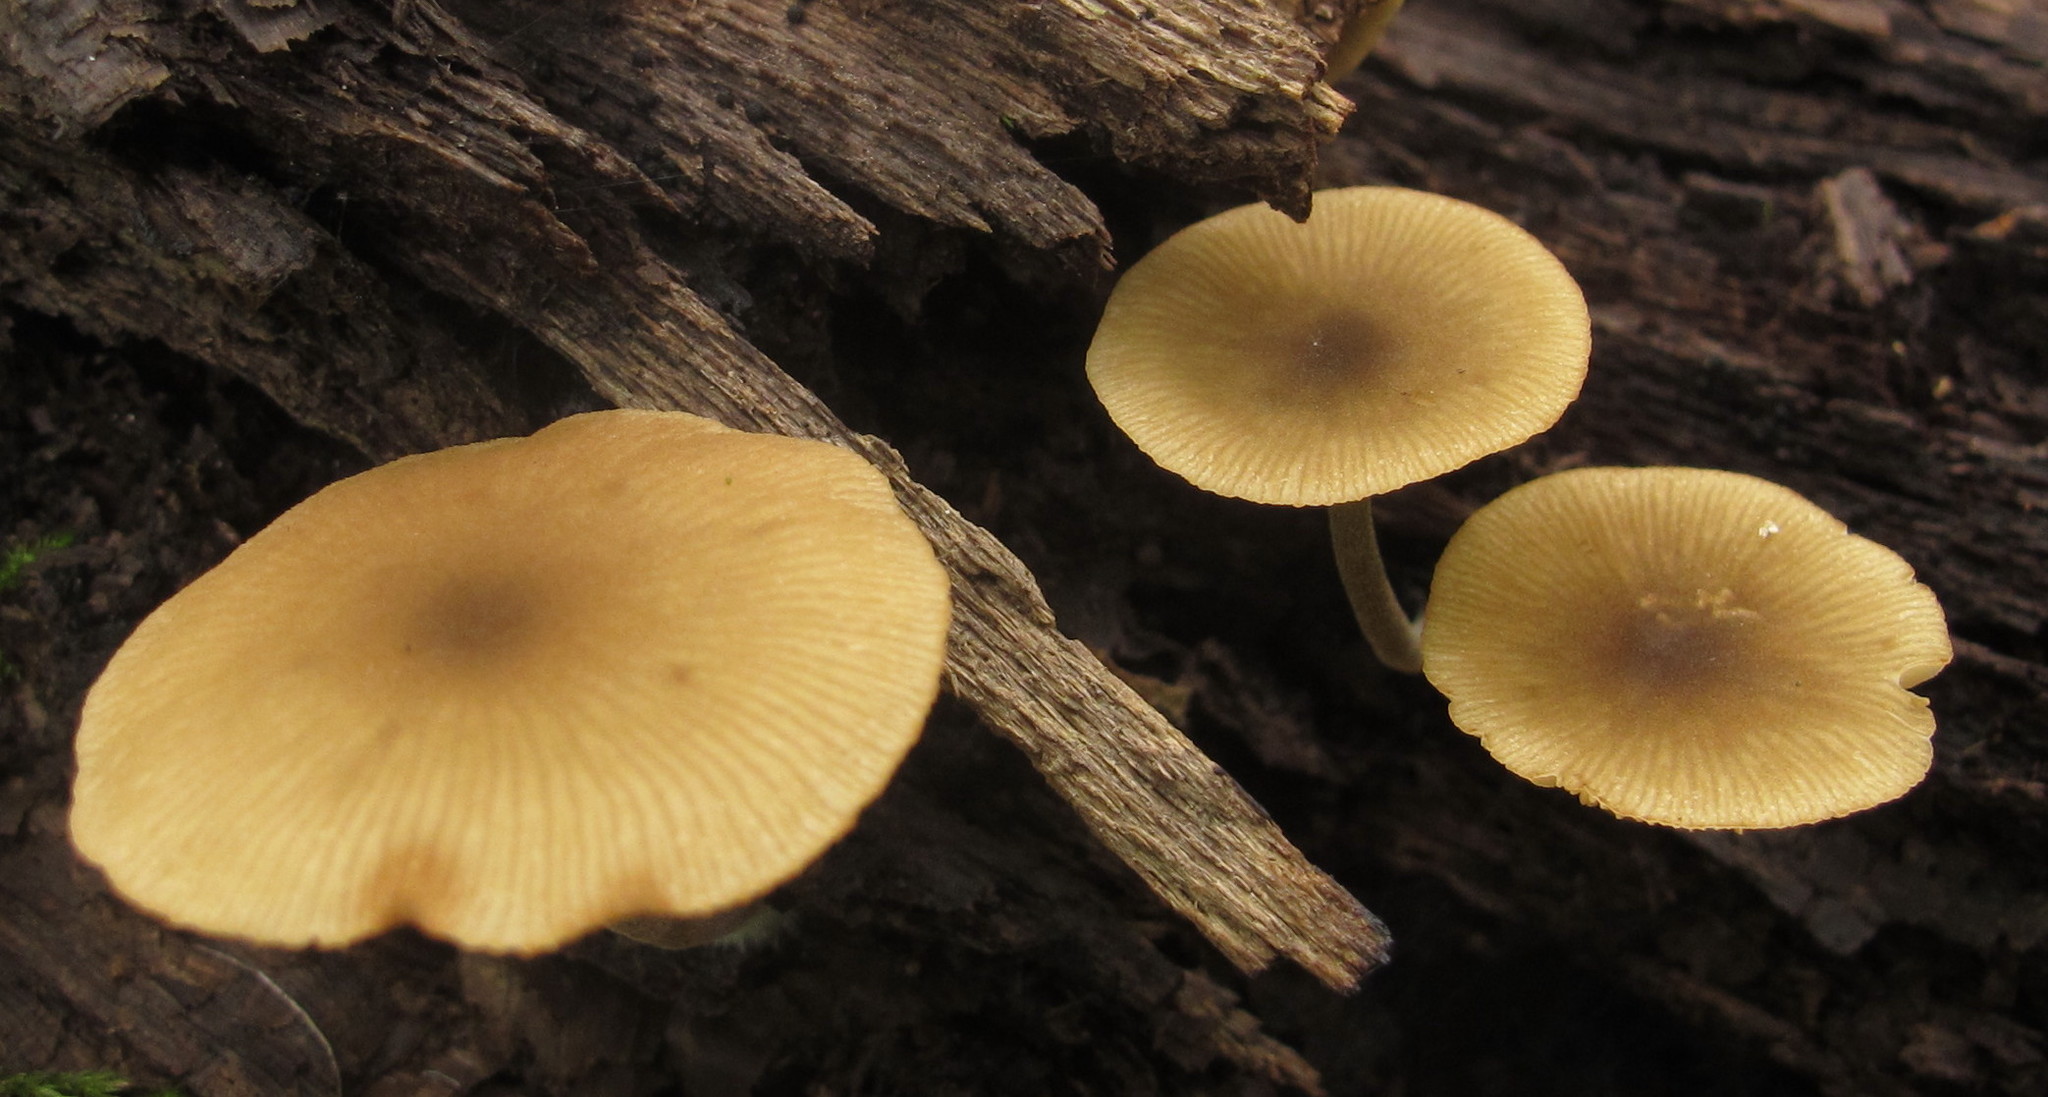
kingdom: Fungi
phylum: Basidiomycota
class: Agaricomycetes
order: Agaricales
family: Crepidotaceae
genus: Simocybe
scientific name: Simocybe centunculus
